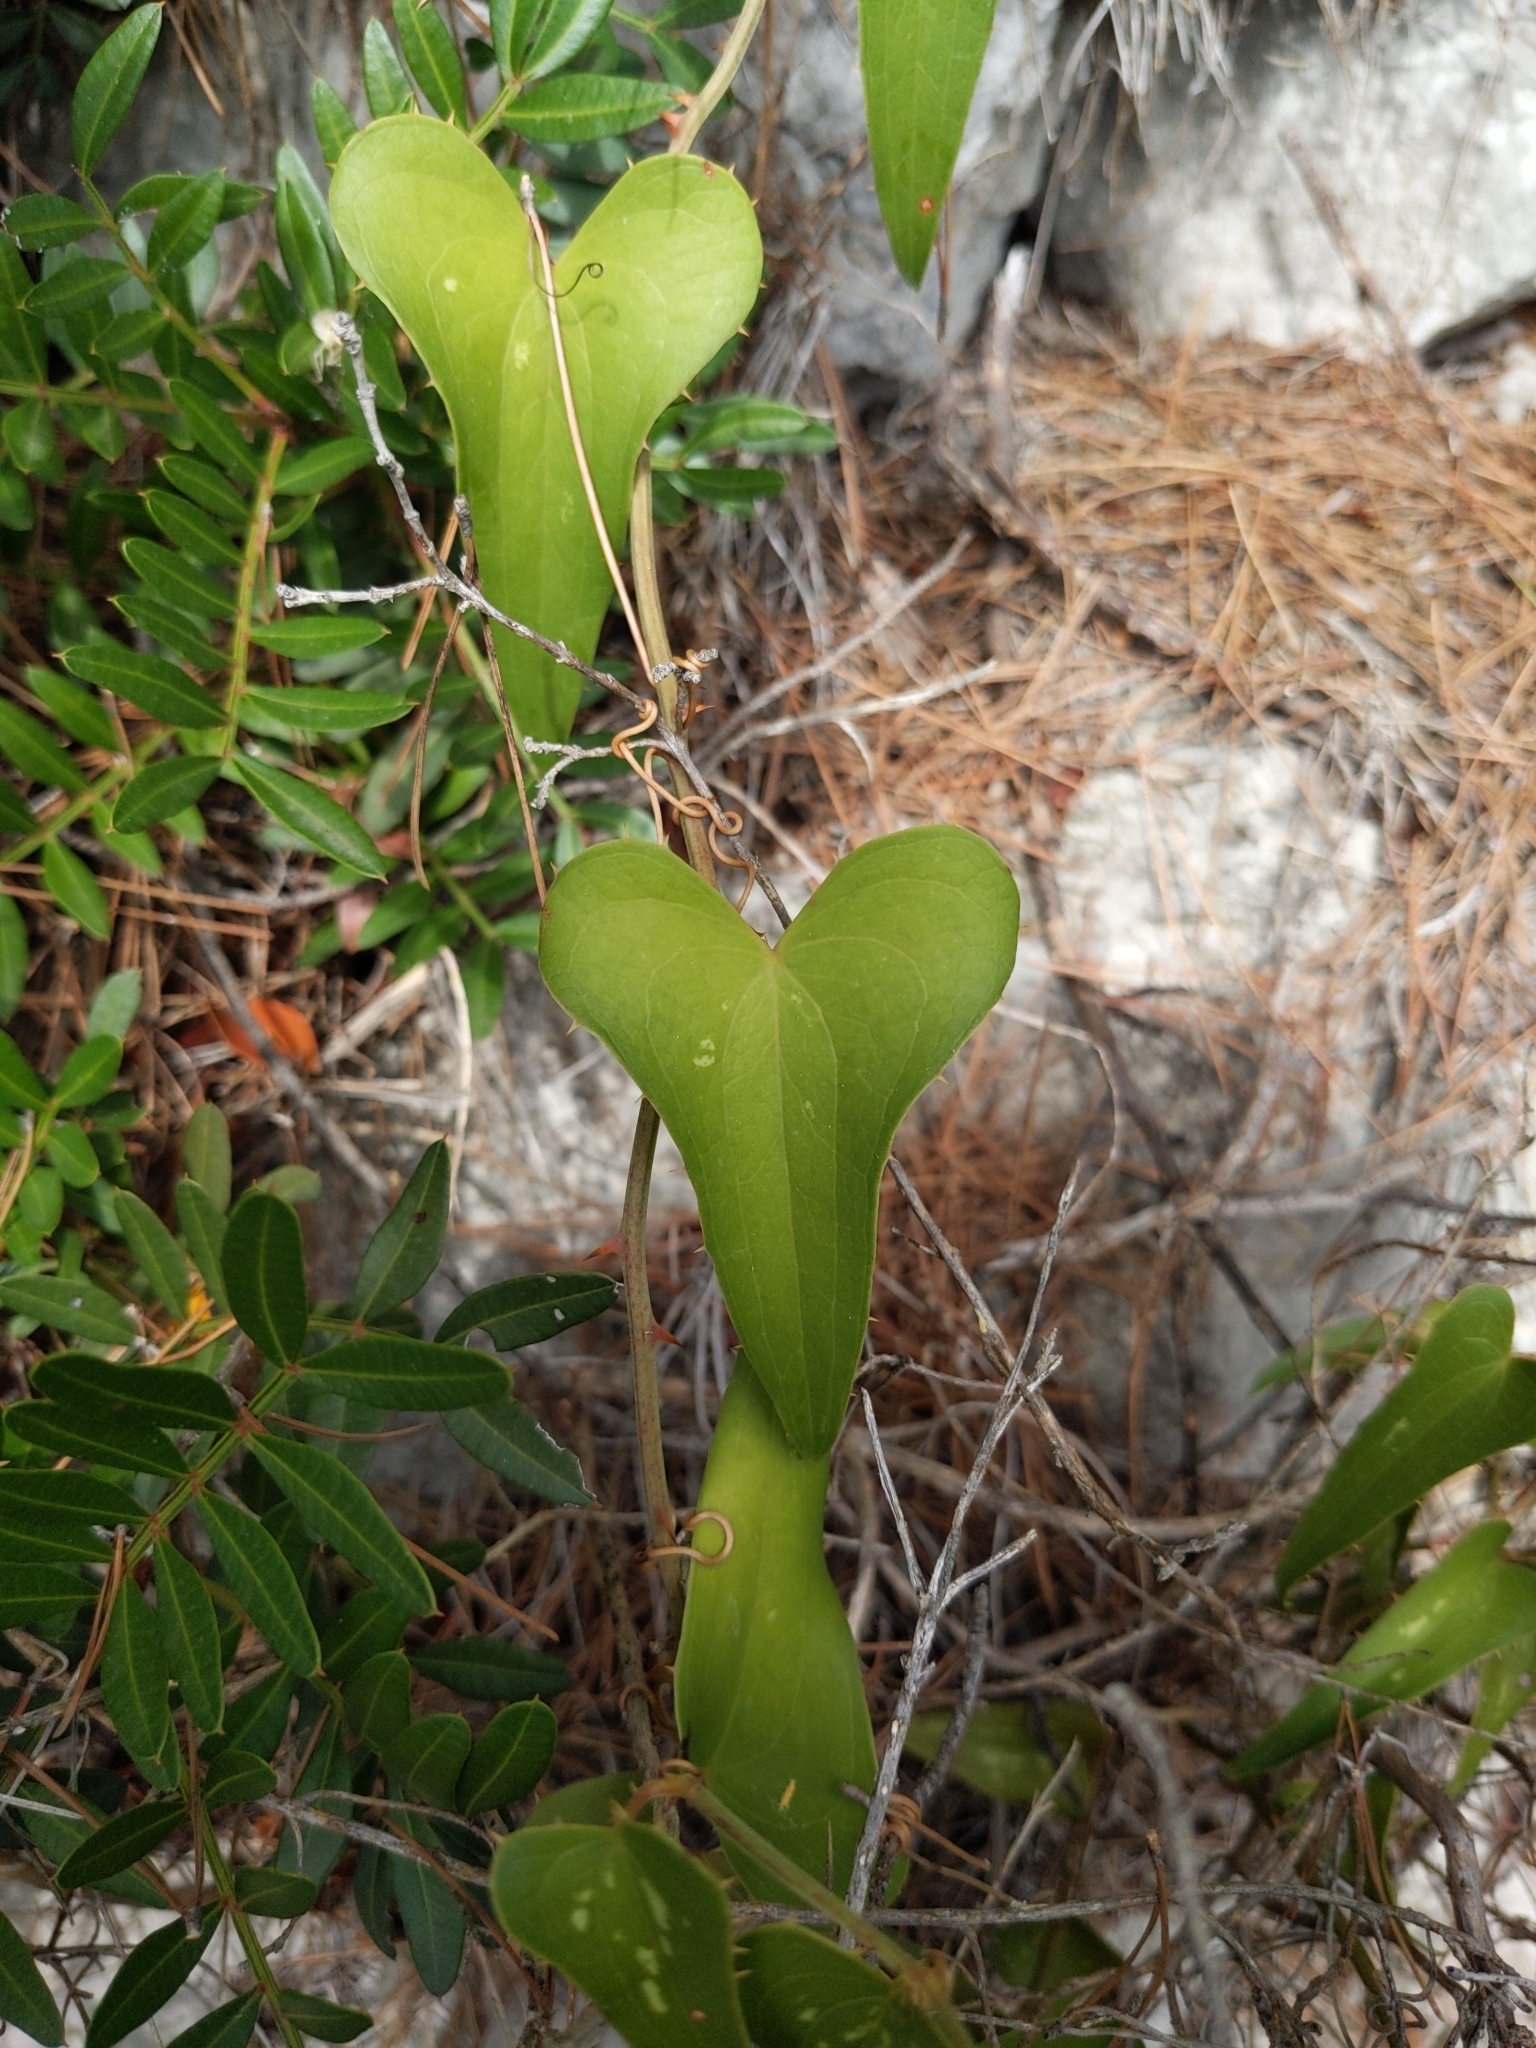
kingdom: Plantae
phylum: Tracheophyta
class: Liliopsida
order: Liliales
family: Smilacaceae
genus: Smilax
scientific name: Smilax aspera
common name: Common smilax
